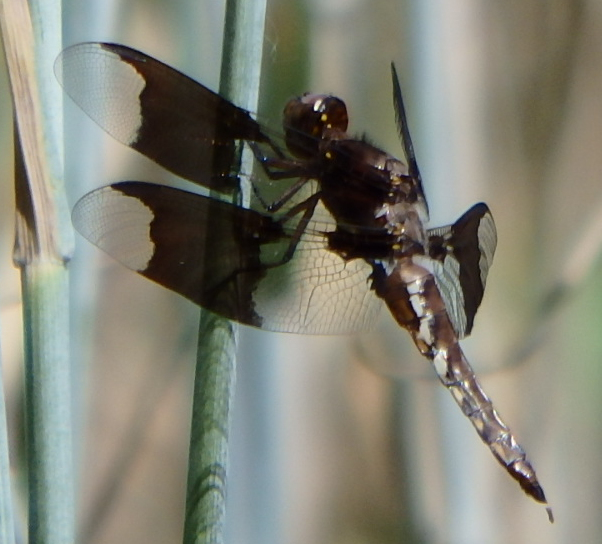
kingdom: Animalia
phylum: Arthropoda
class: Insecta
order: Odonata
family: Libellulidae
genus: Plathemis
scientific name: Plathemis lydia
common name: Common whitetail
